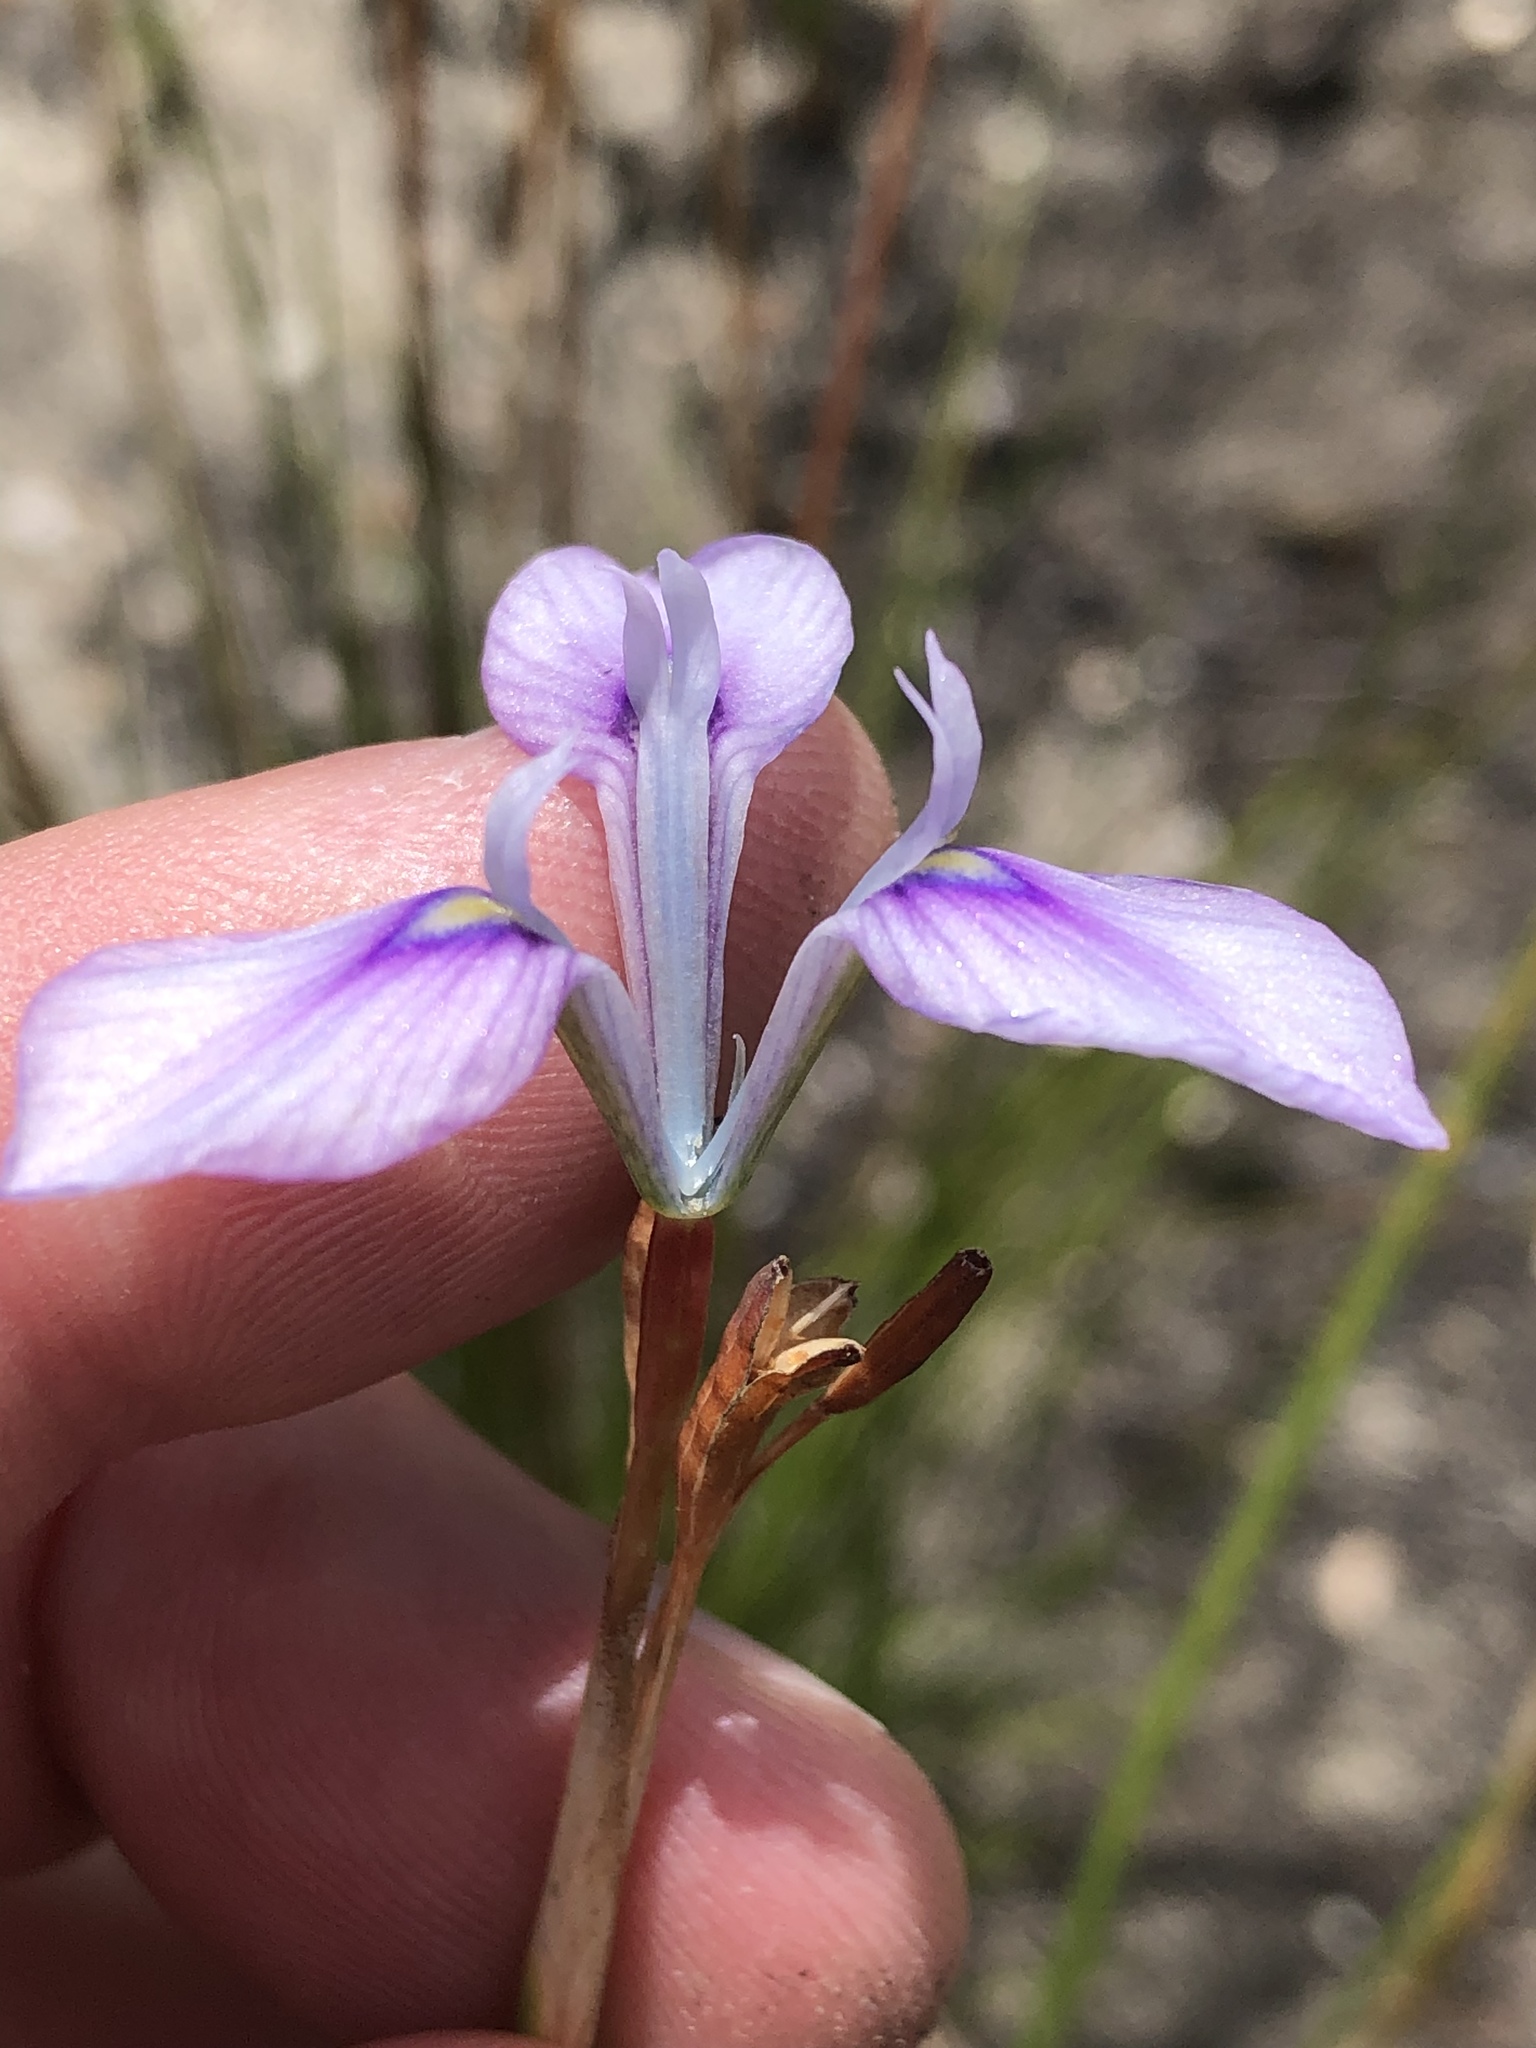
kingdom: Plantae
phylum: Tracheophyta
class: Liliopsida
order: Asparagales
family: Iridaceae
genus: Moraea
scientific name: Moraea tripetala
